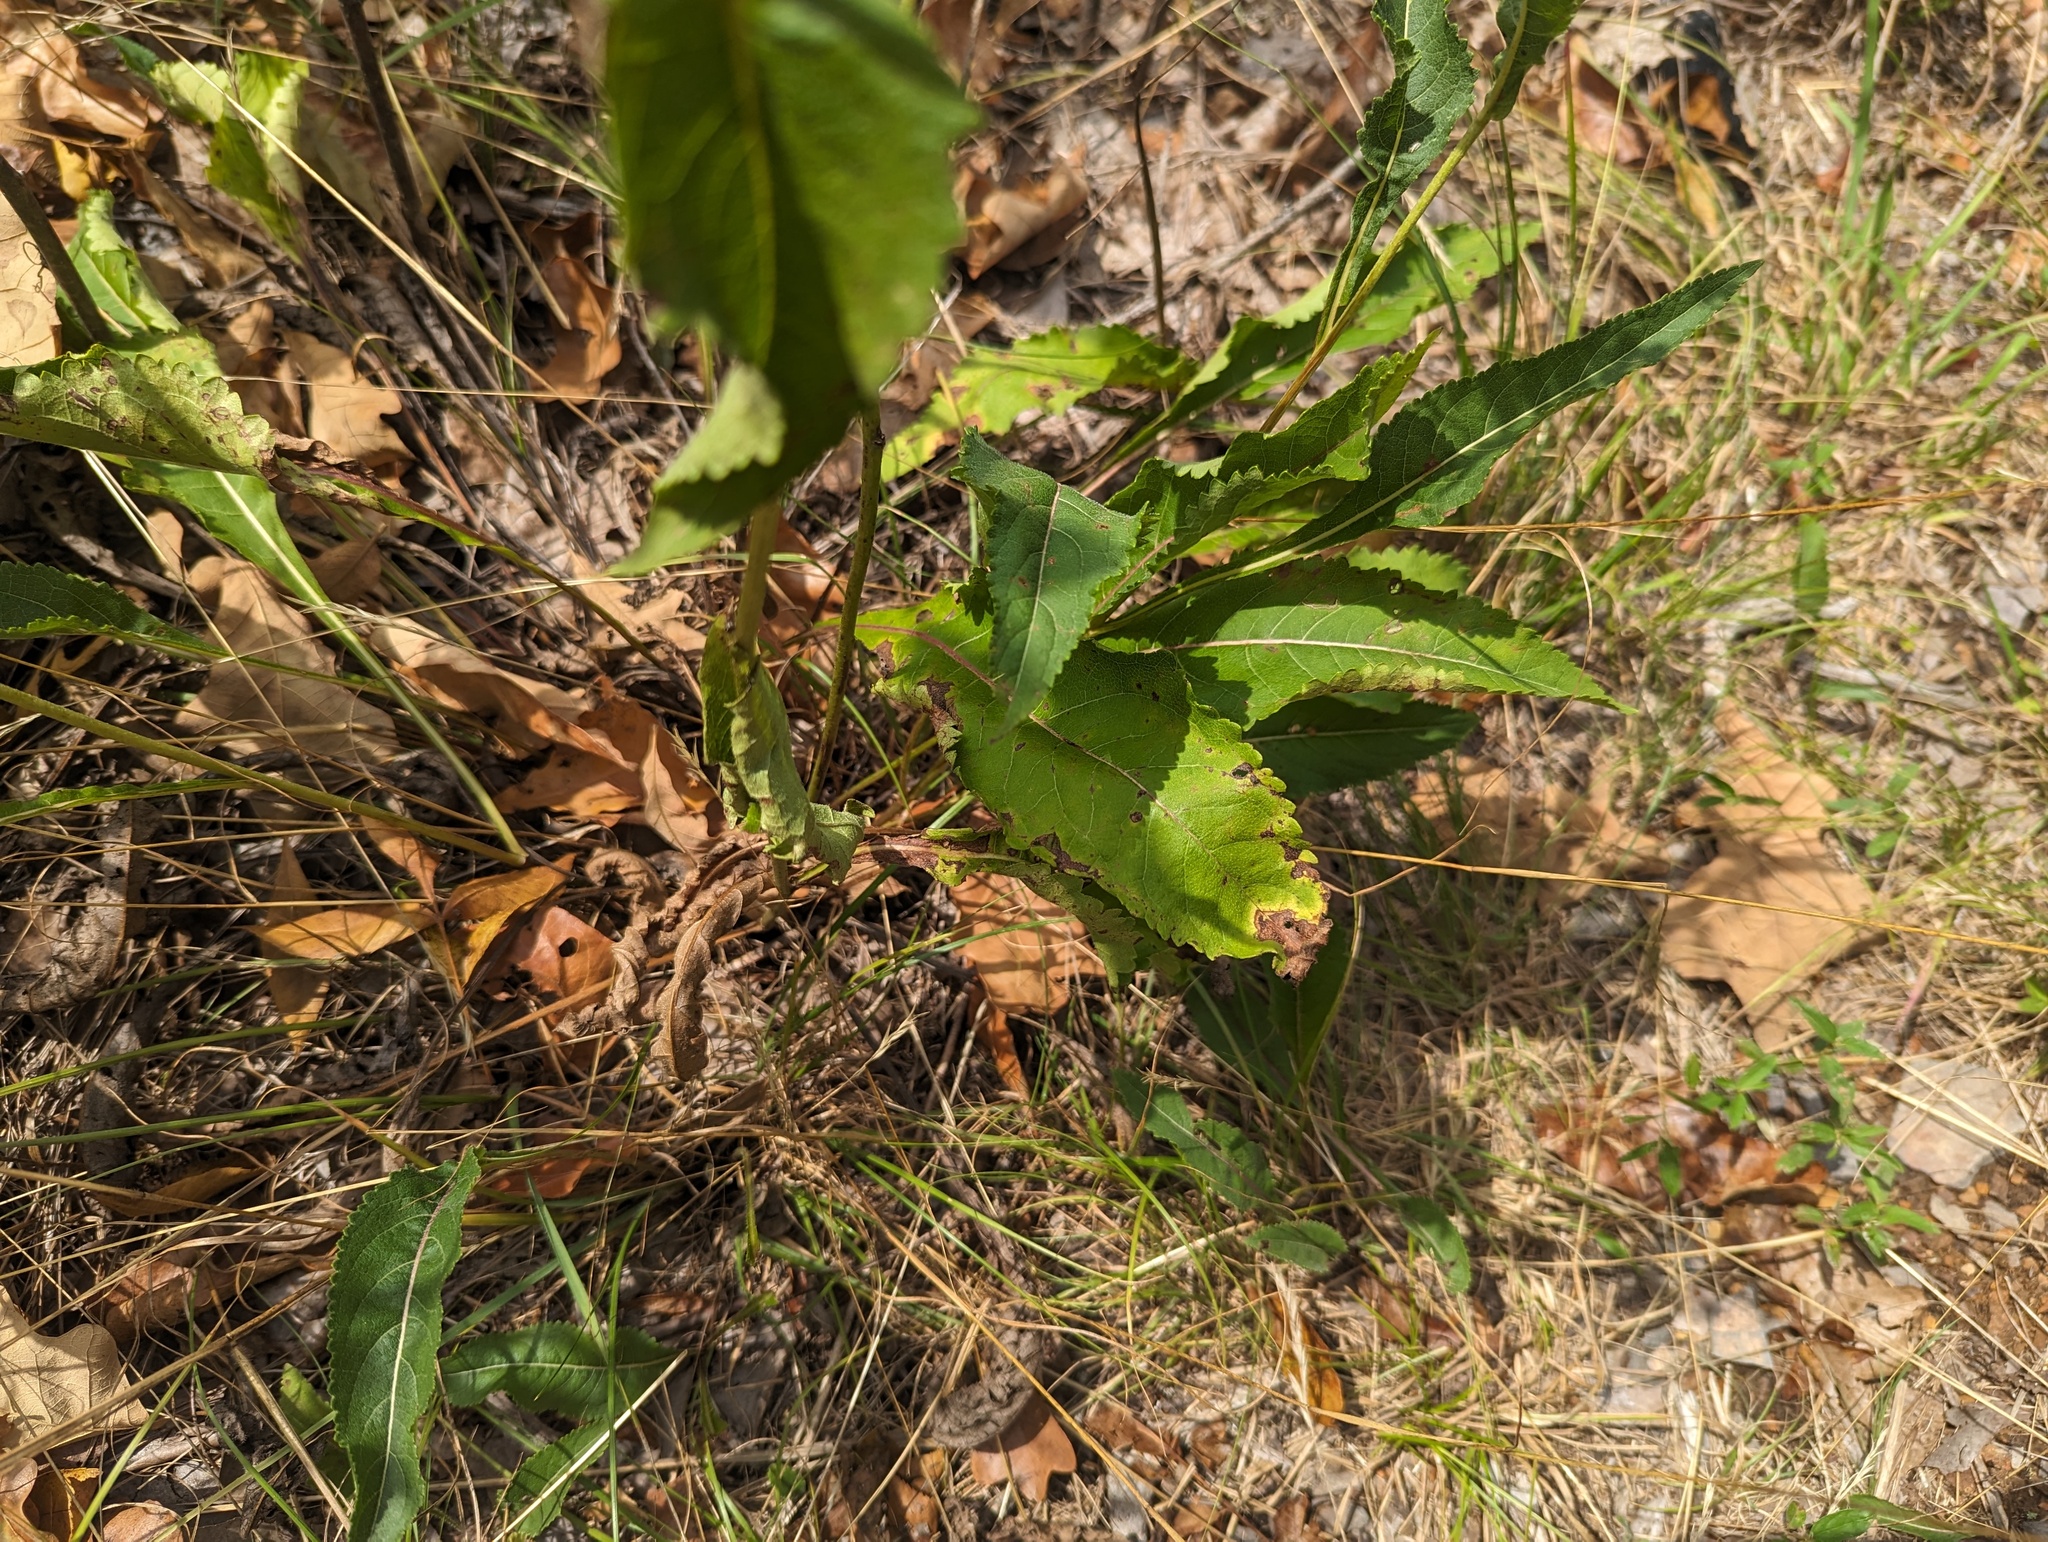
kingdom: Plantae
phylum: Tracheophyta
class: Magnoliopsida
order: Asterales
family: Asteraceae
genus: Parthenium
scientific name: Parthenium integrifolium
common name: American feverfew
